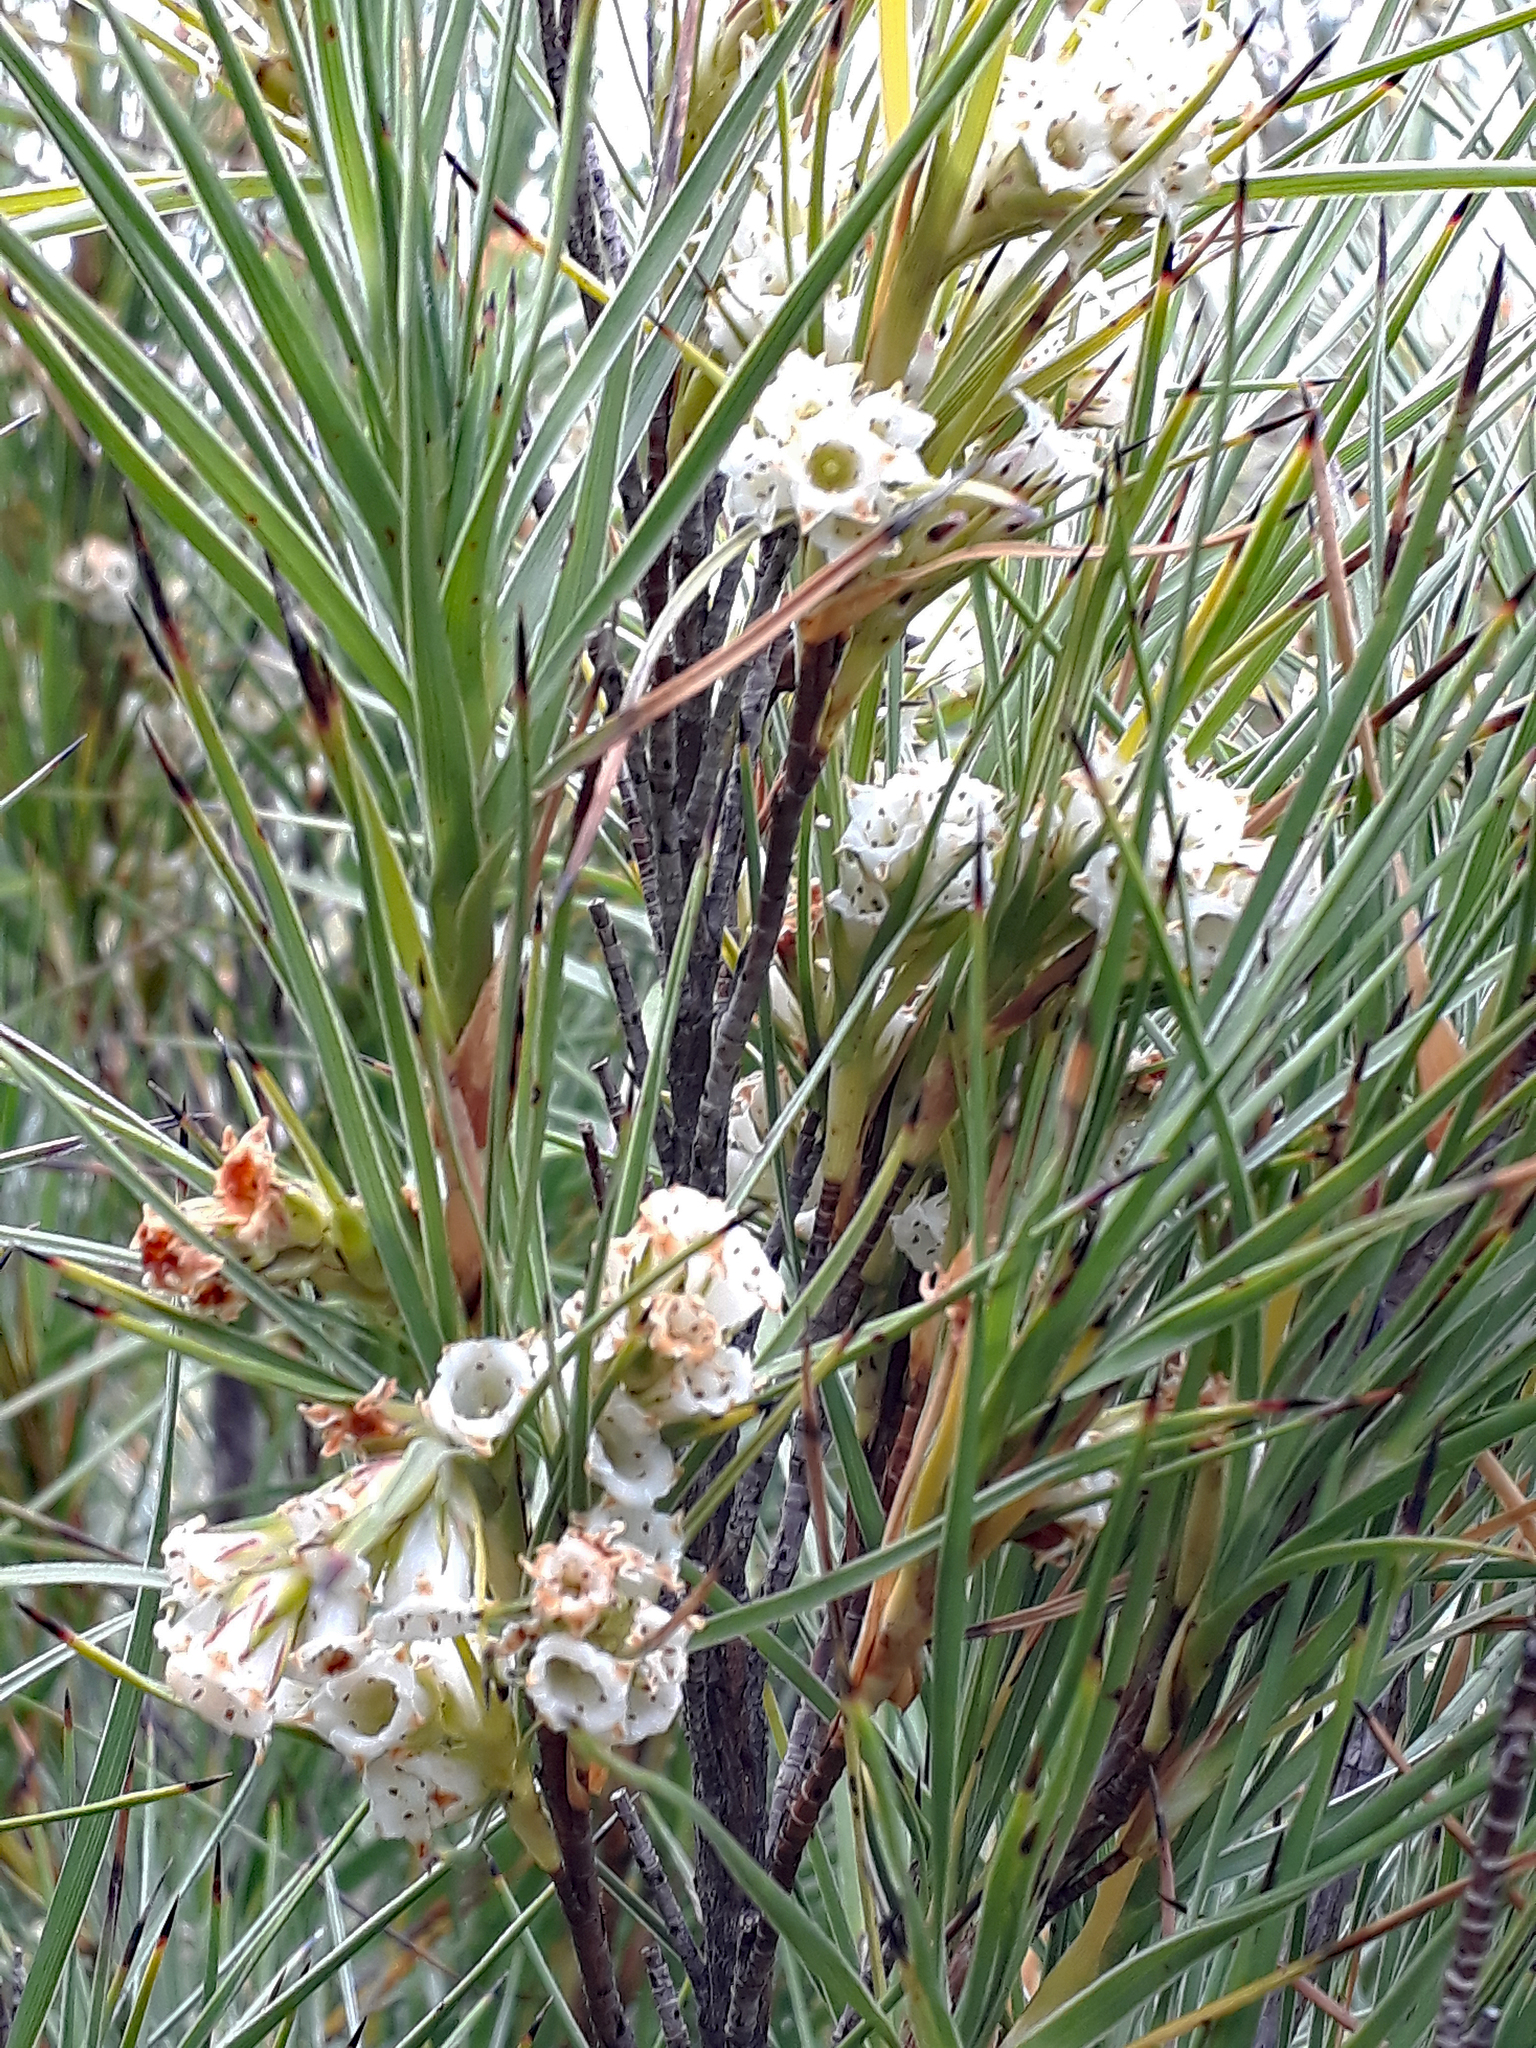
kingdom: Plantae
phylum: Tracheophyta
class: Magnoliopsida
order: Ericales
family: Ericaceae
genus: Dracophyllum
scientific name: Dracophyllum arboreum
